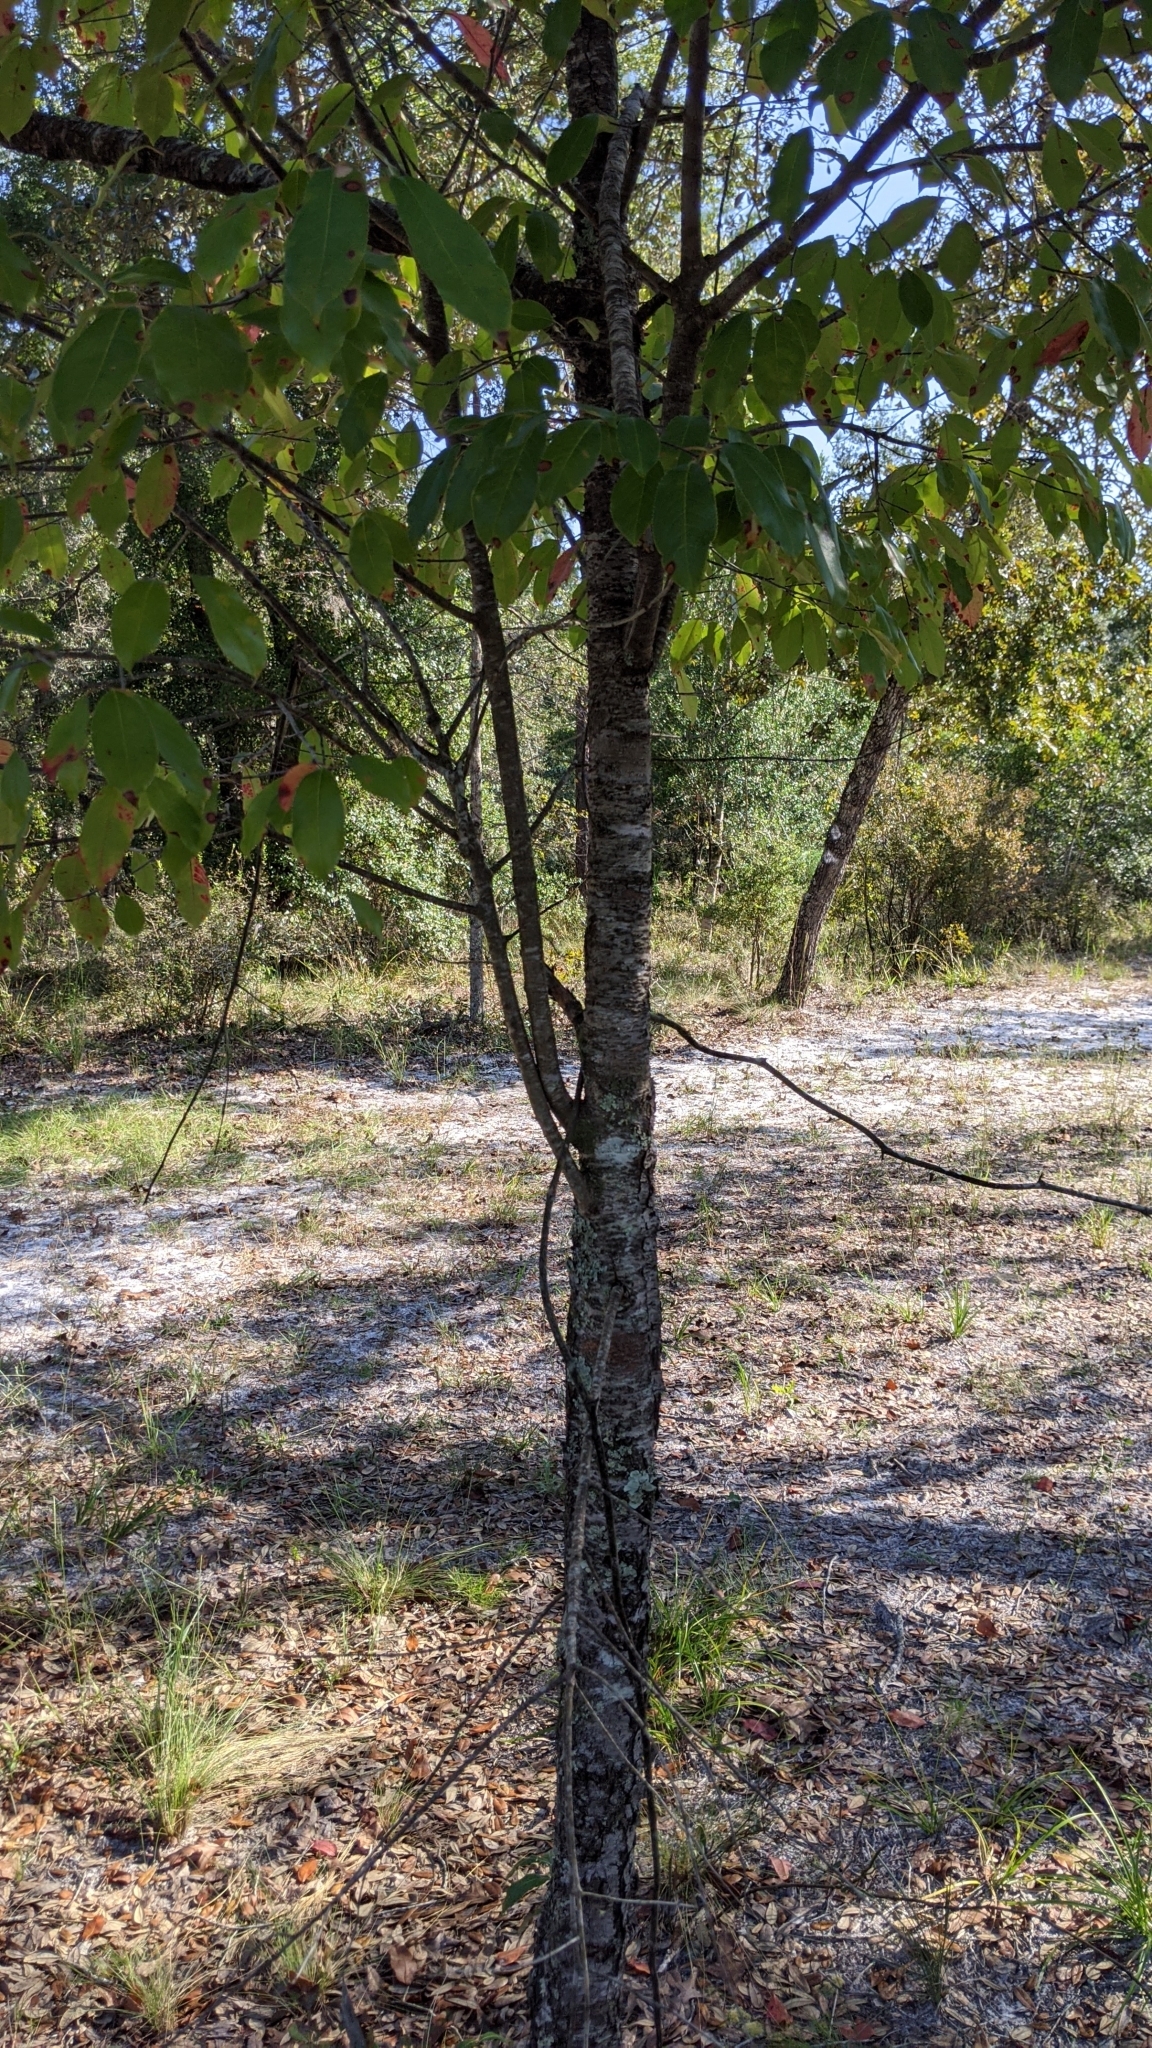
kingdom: Plantae
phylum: Tracheophyta
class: Magnoliopsida
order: Rosales
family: Rosaceae
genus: Prunus
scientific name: Prunus serotina
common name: Black cherry
